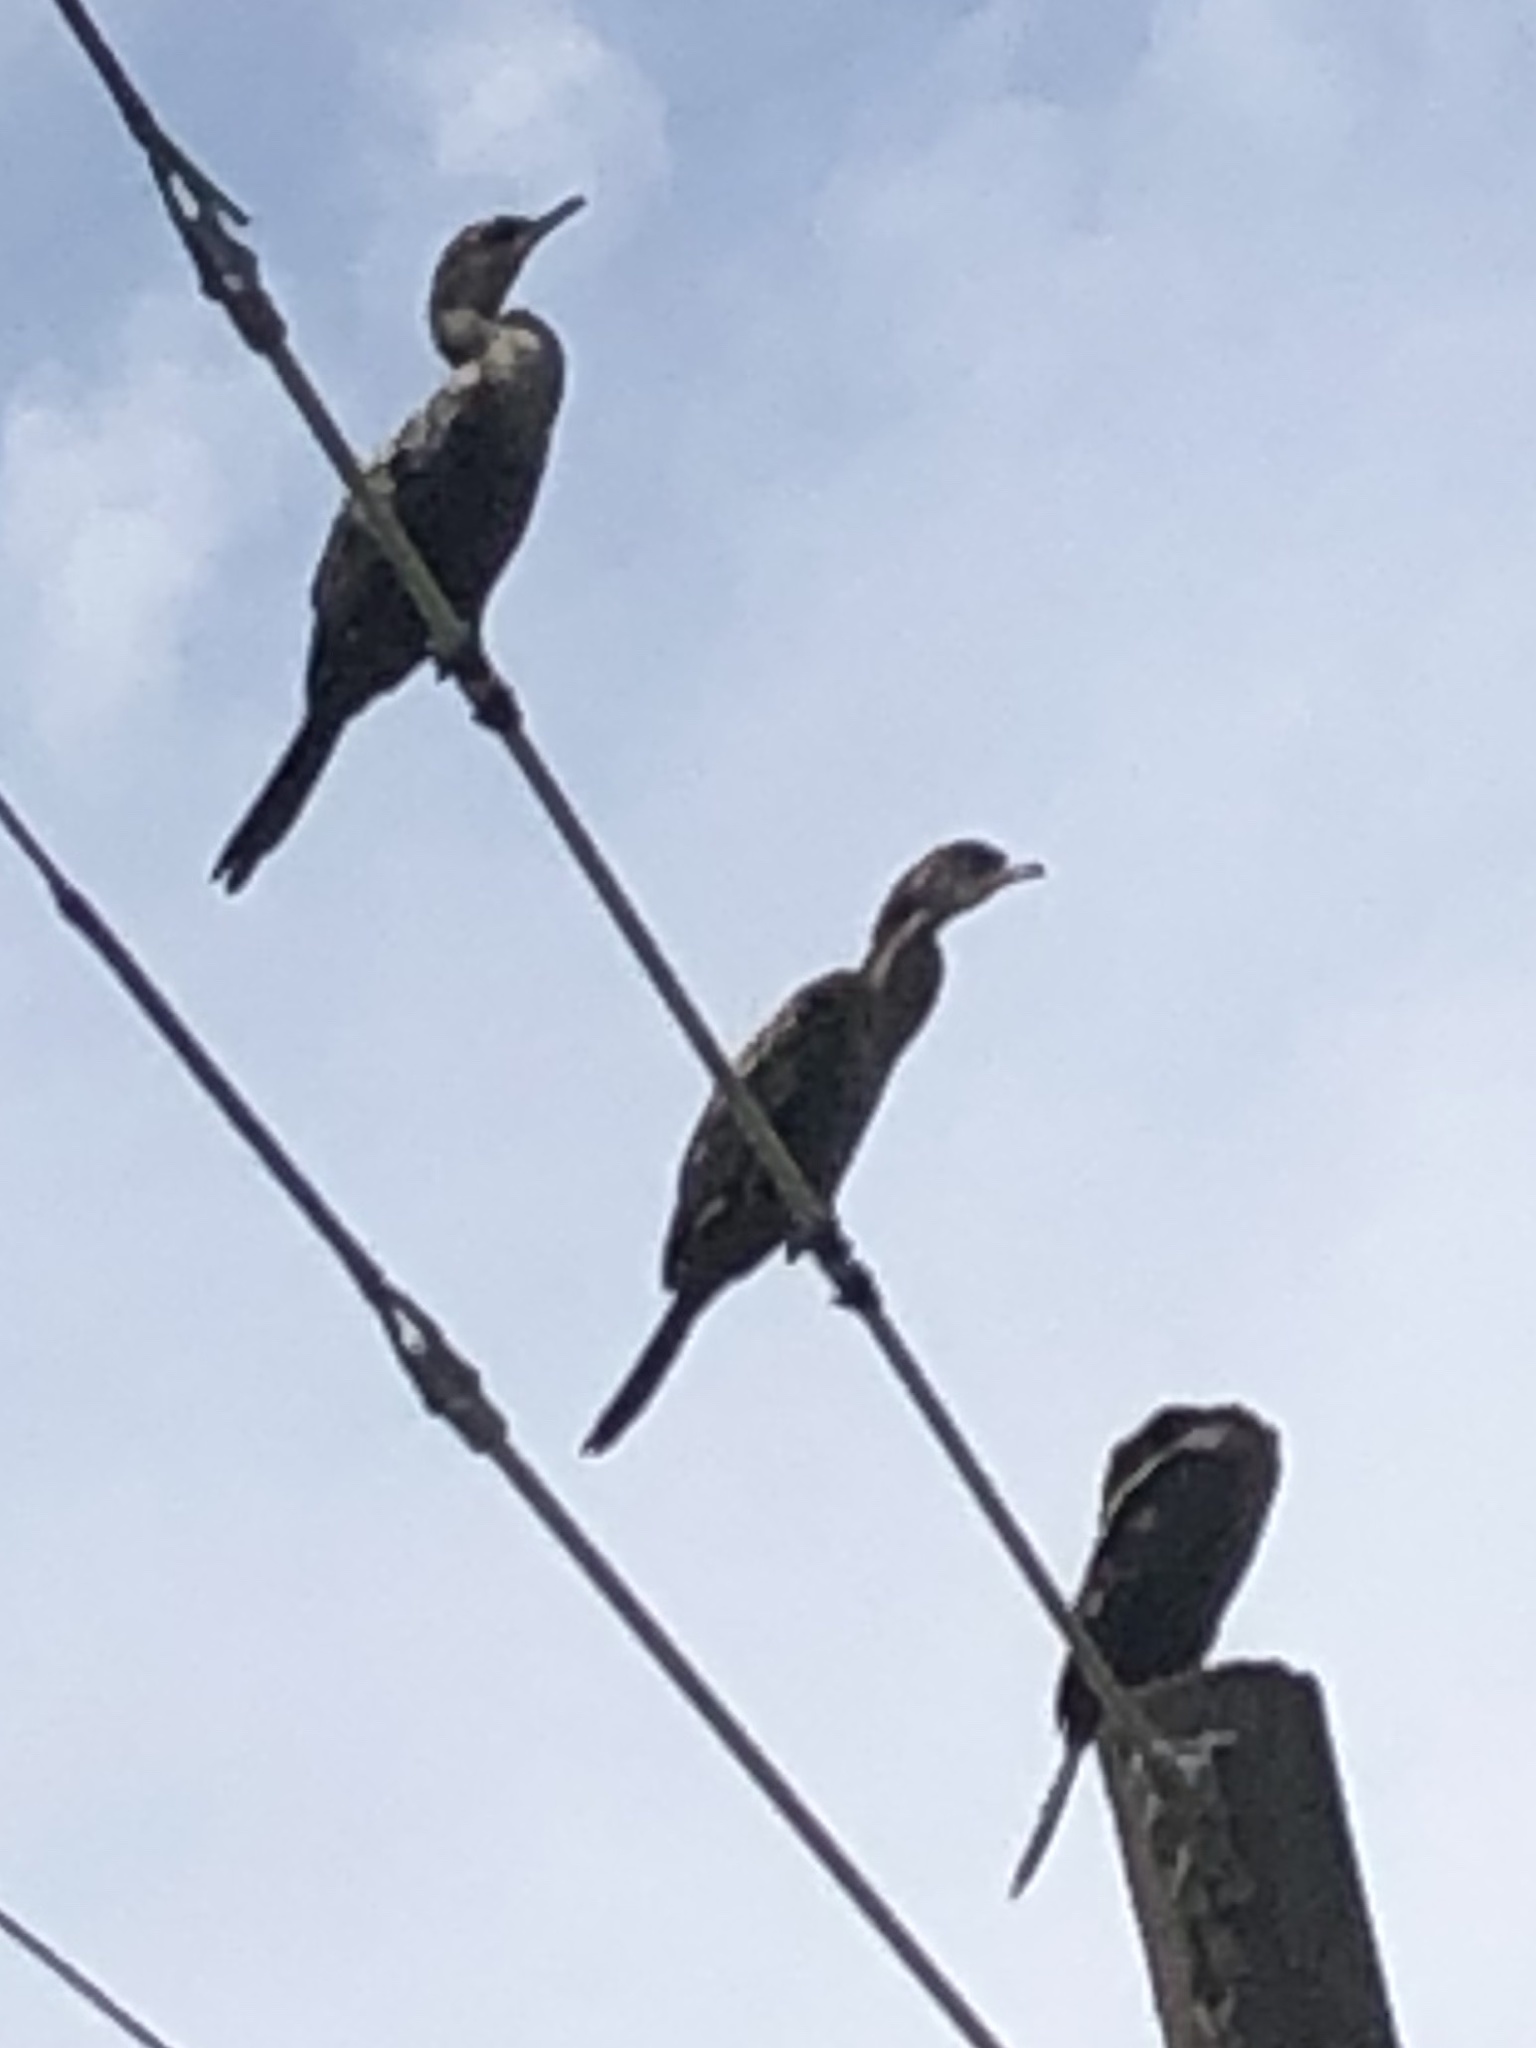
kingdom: Animalia
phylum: Chordata
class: Aves
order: Suliformes
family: Phalacrocoracidae
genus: Phalacrocorax
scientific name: Phalacrocorax brasilianus
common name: Neotropic cormorant
